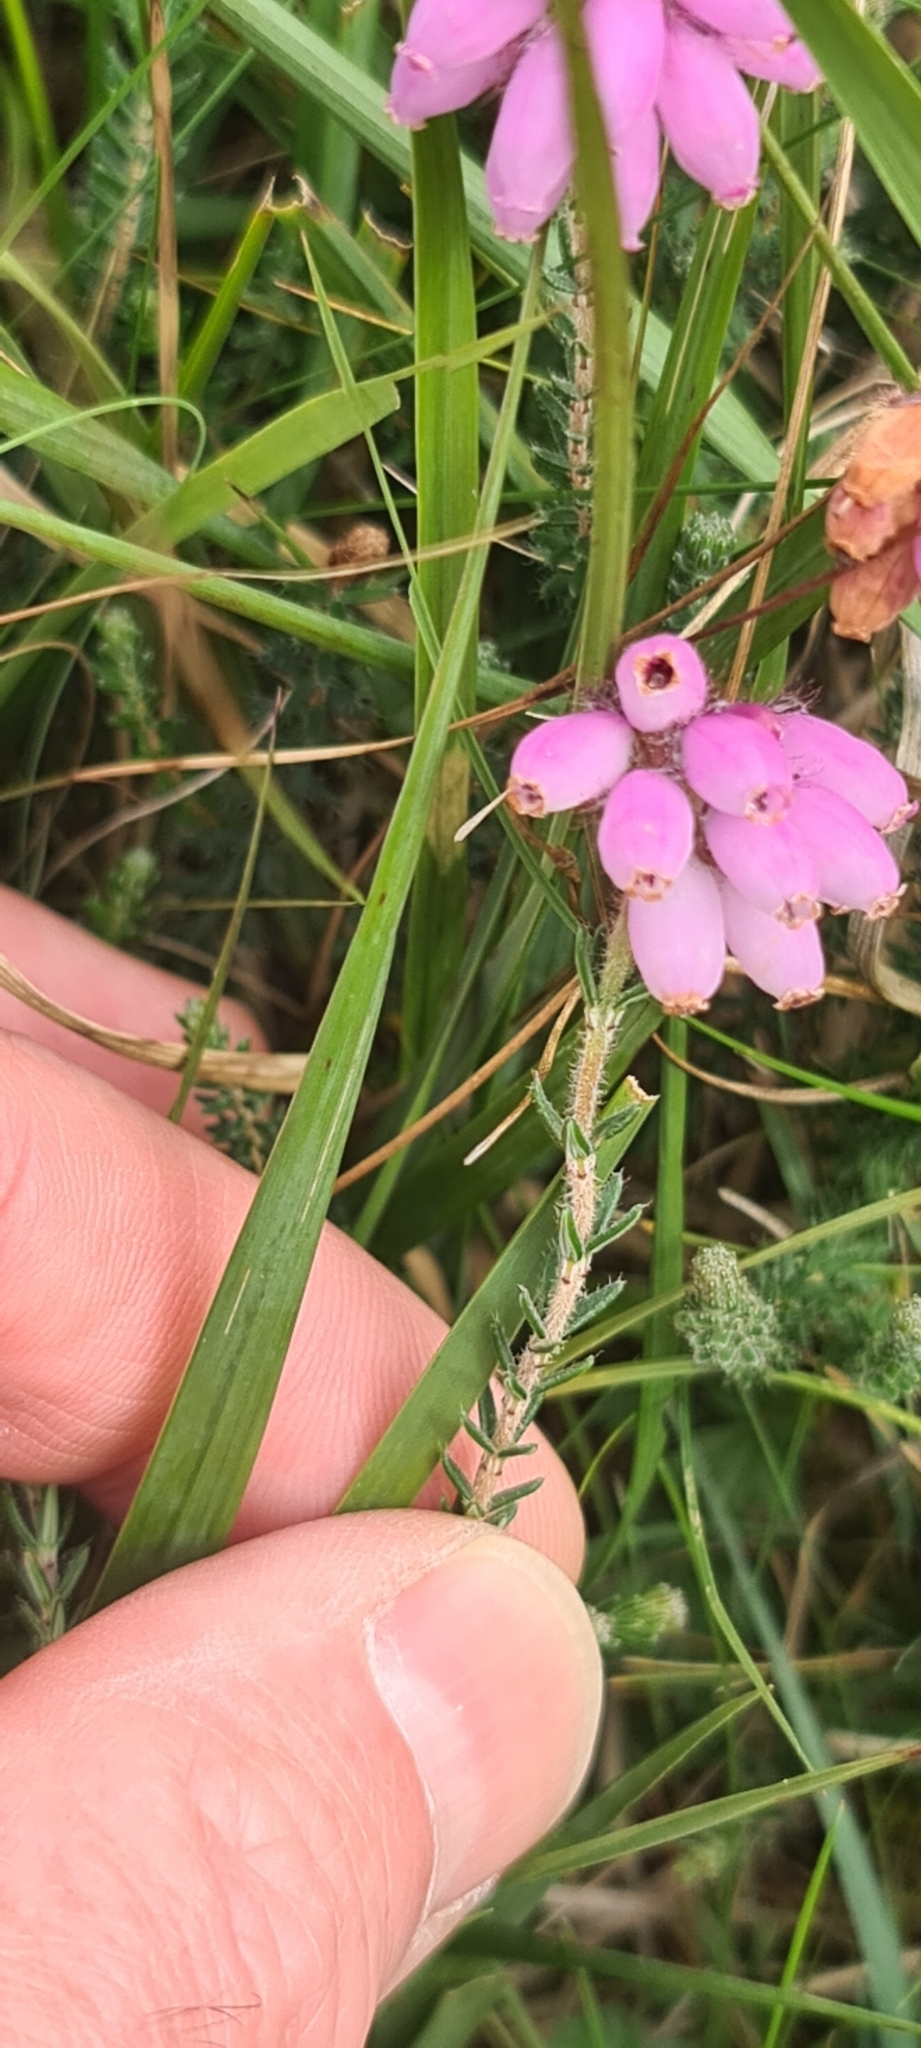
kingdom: Plantae
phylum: Tracheophyta
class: Magnoliopsida
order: Ericales
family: Ericaceae
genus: Erica
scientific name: Erica tetralix
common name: Cross-leaved heath
